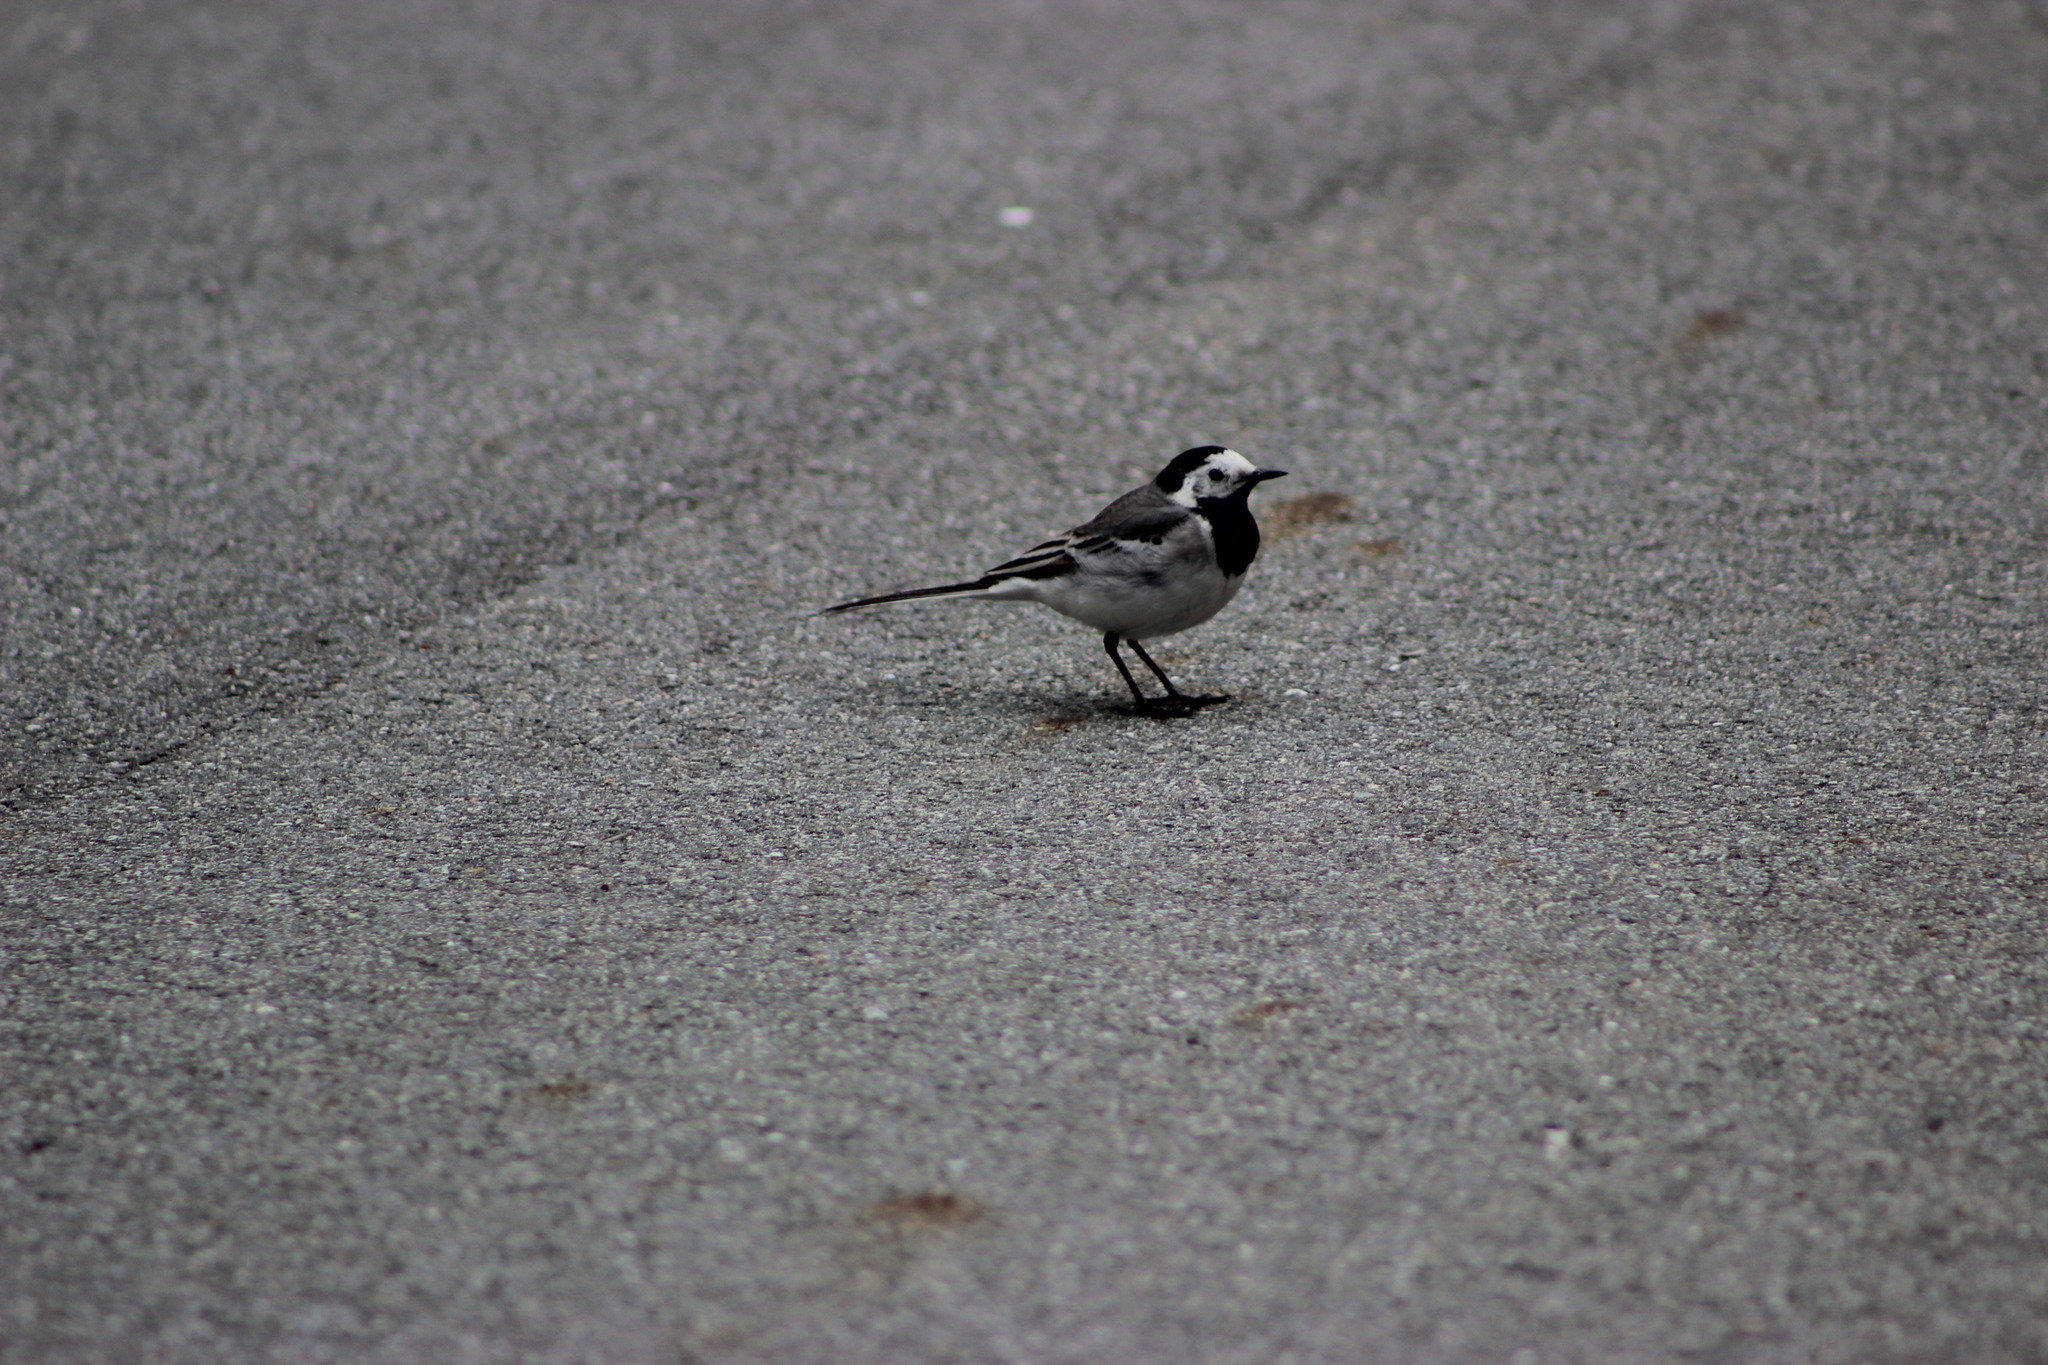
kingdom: Animalia
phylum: Chordata
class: Aves
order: Passeriformes
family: Motacillidae
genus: Motacilla
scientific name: Motacilla alba
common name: White wagtail
